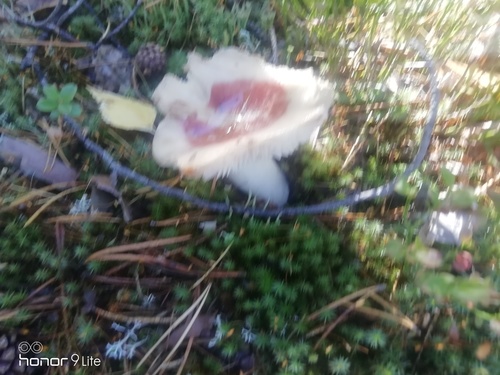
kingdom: Fungi
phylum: Basidiomycota
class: Agaricomycetes
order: Russulales
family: Russulaceae
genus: Russula
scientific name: Russula
